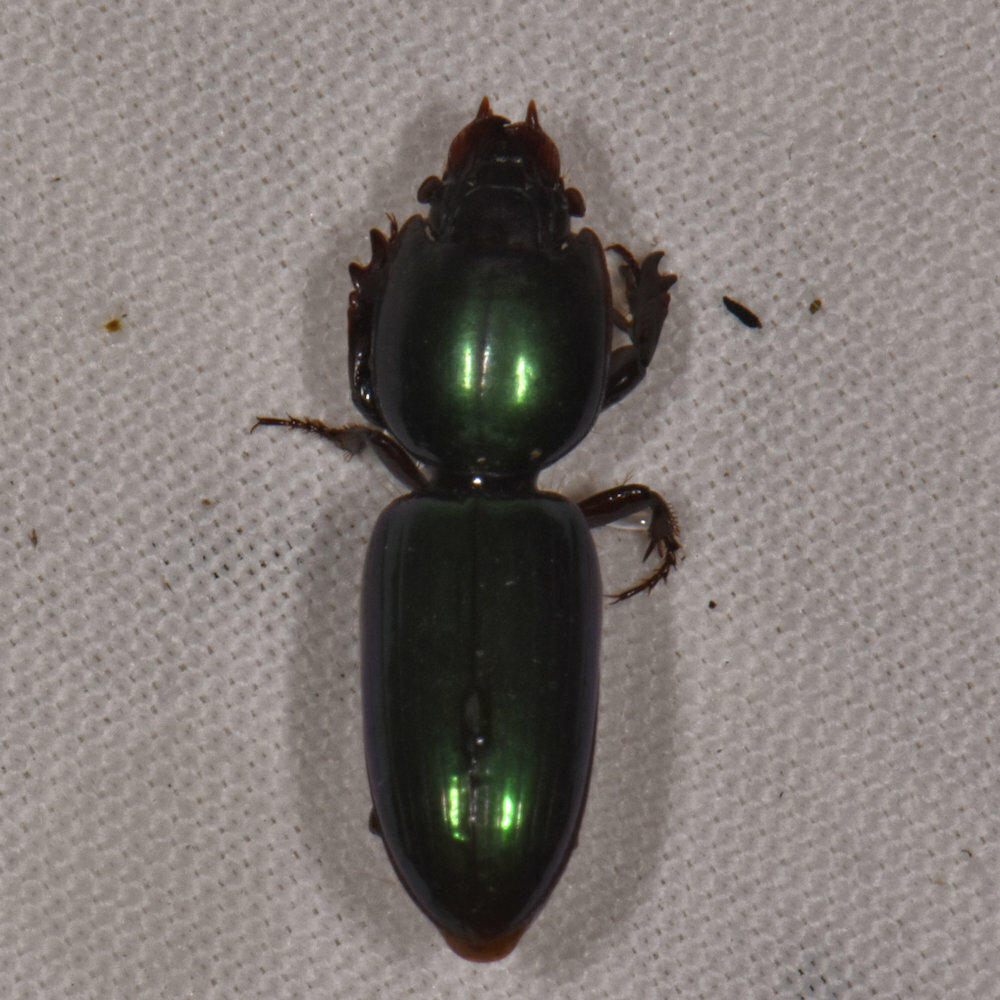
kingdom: Animalia
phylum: Arthropoda
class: Insecta
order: Coleoptera
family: Carabidae
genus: Corintascaris
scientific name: Corintascaris ferreirae
